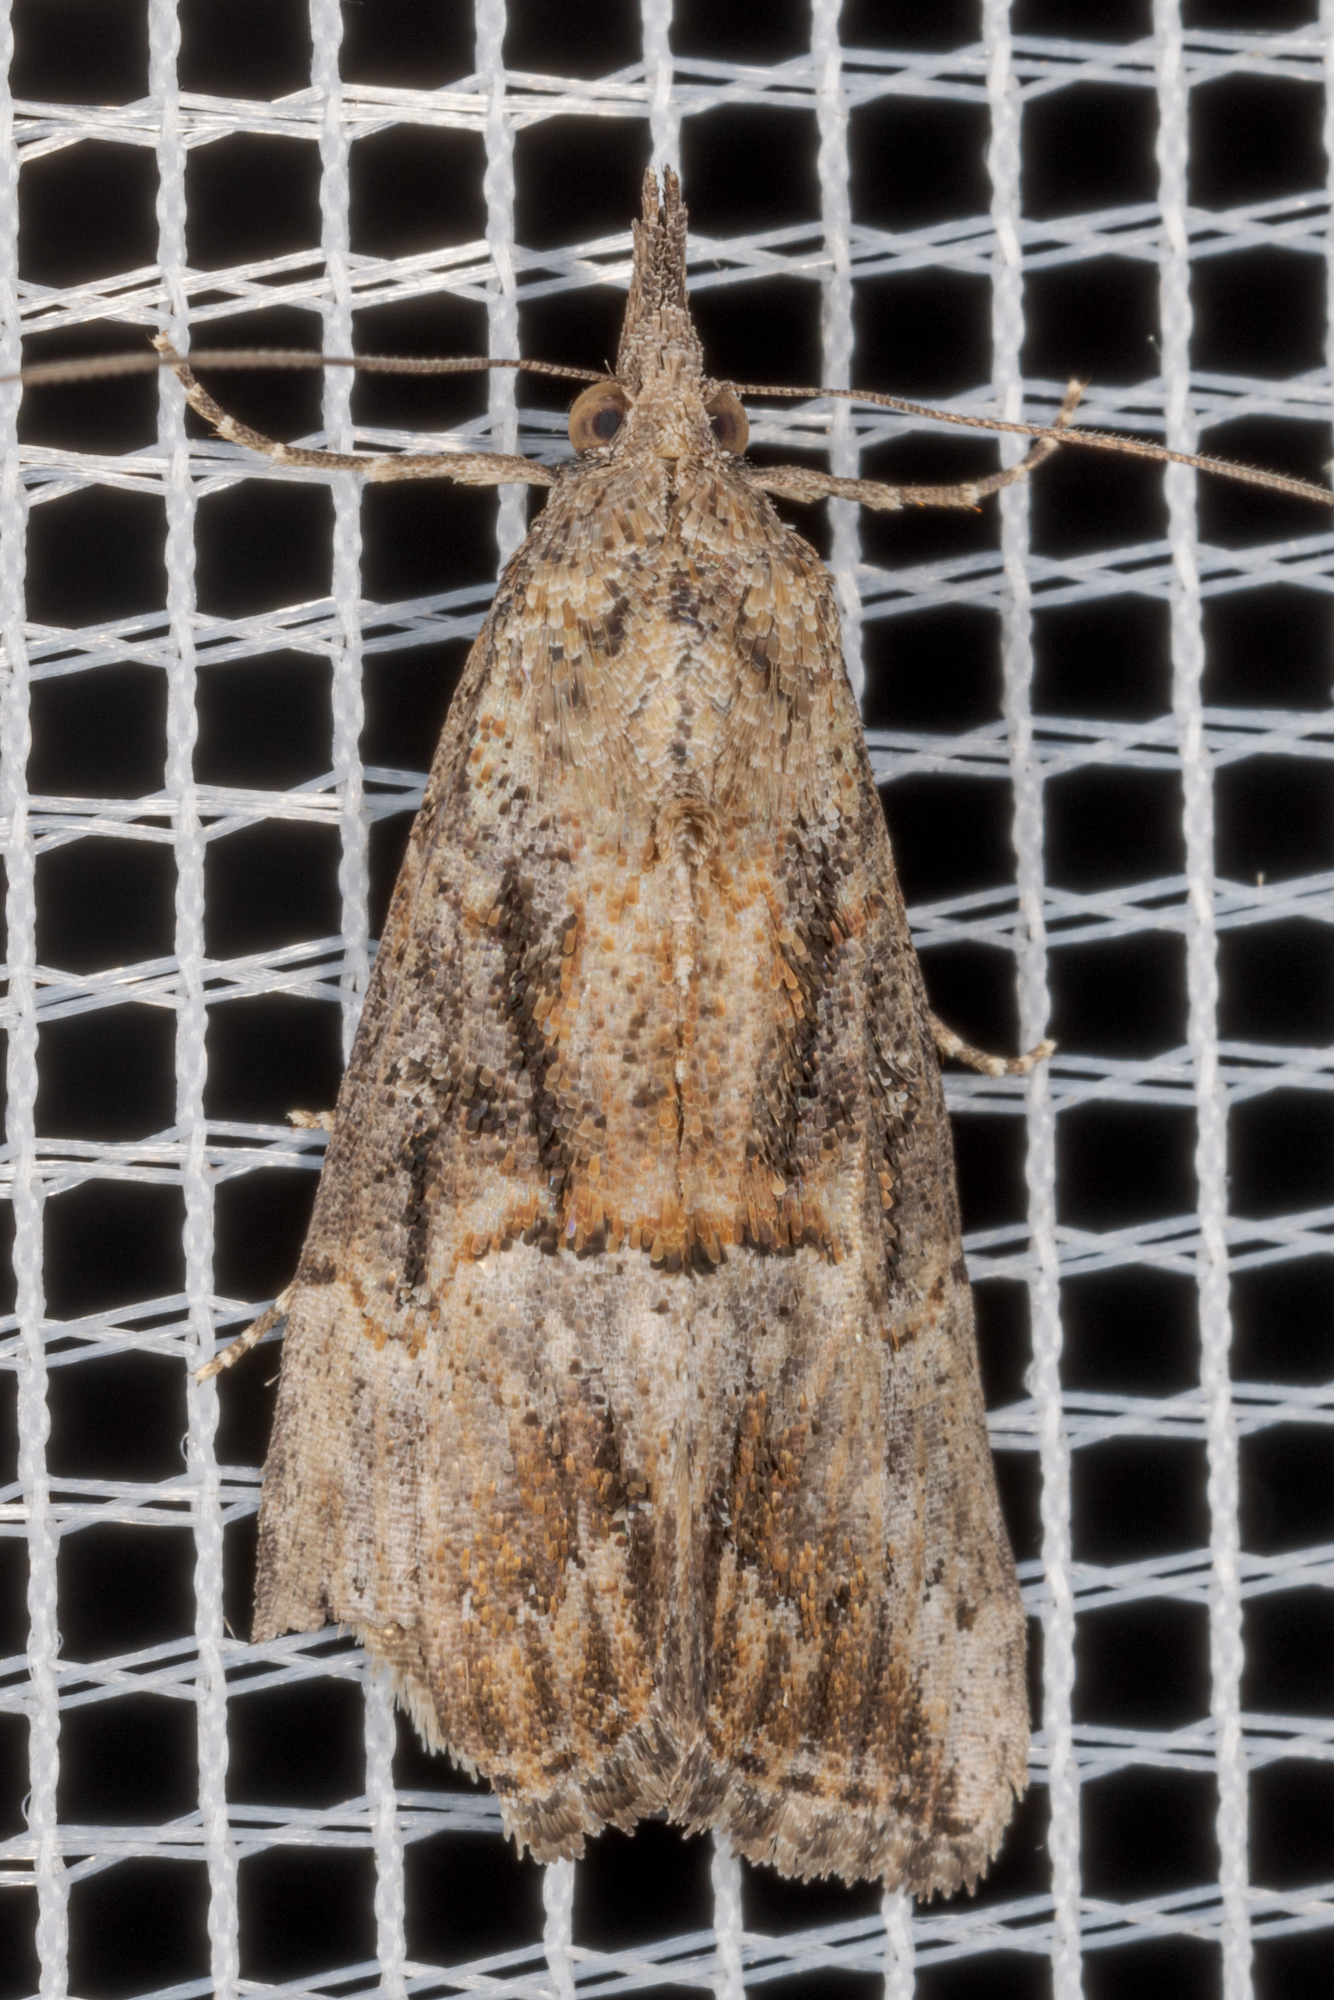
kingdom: Animalia
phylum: Arthropoda
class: Insecta
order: Lepidoptera
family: Erebidae
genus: Hypena
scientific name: Hypena scabra
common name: Green cloverworm
